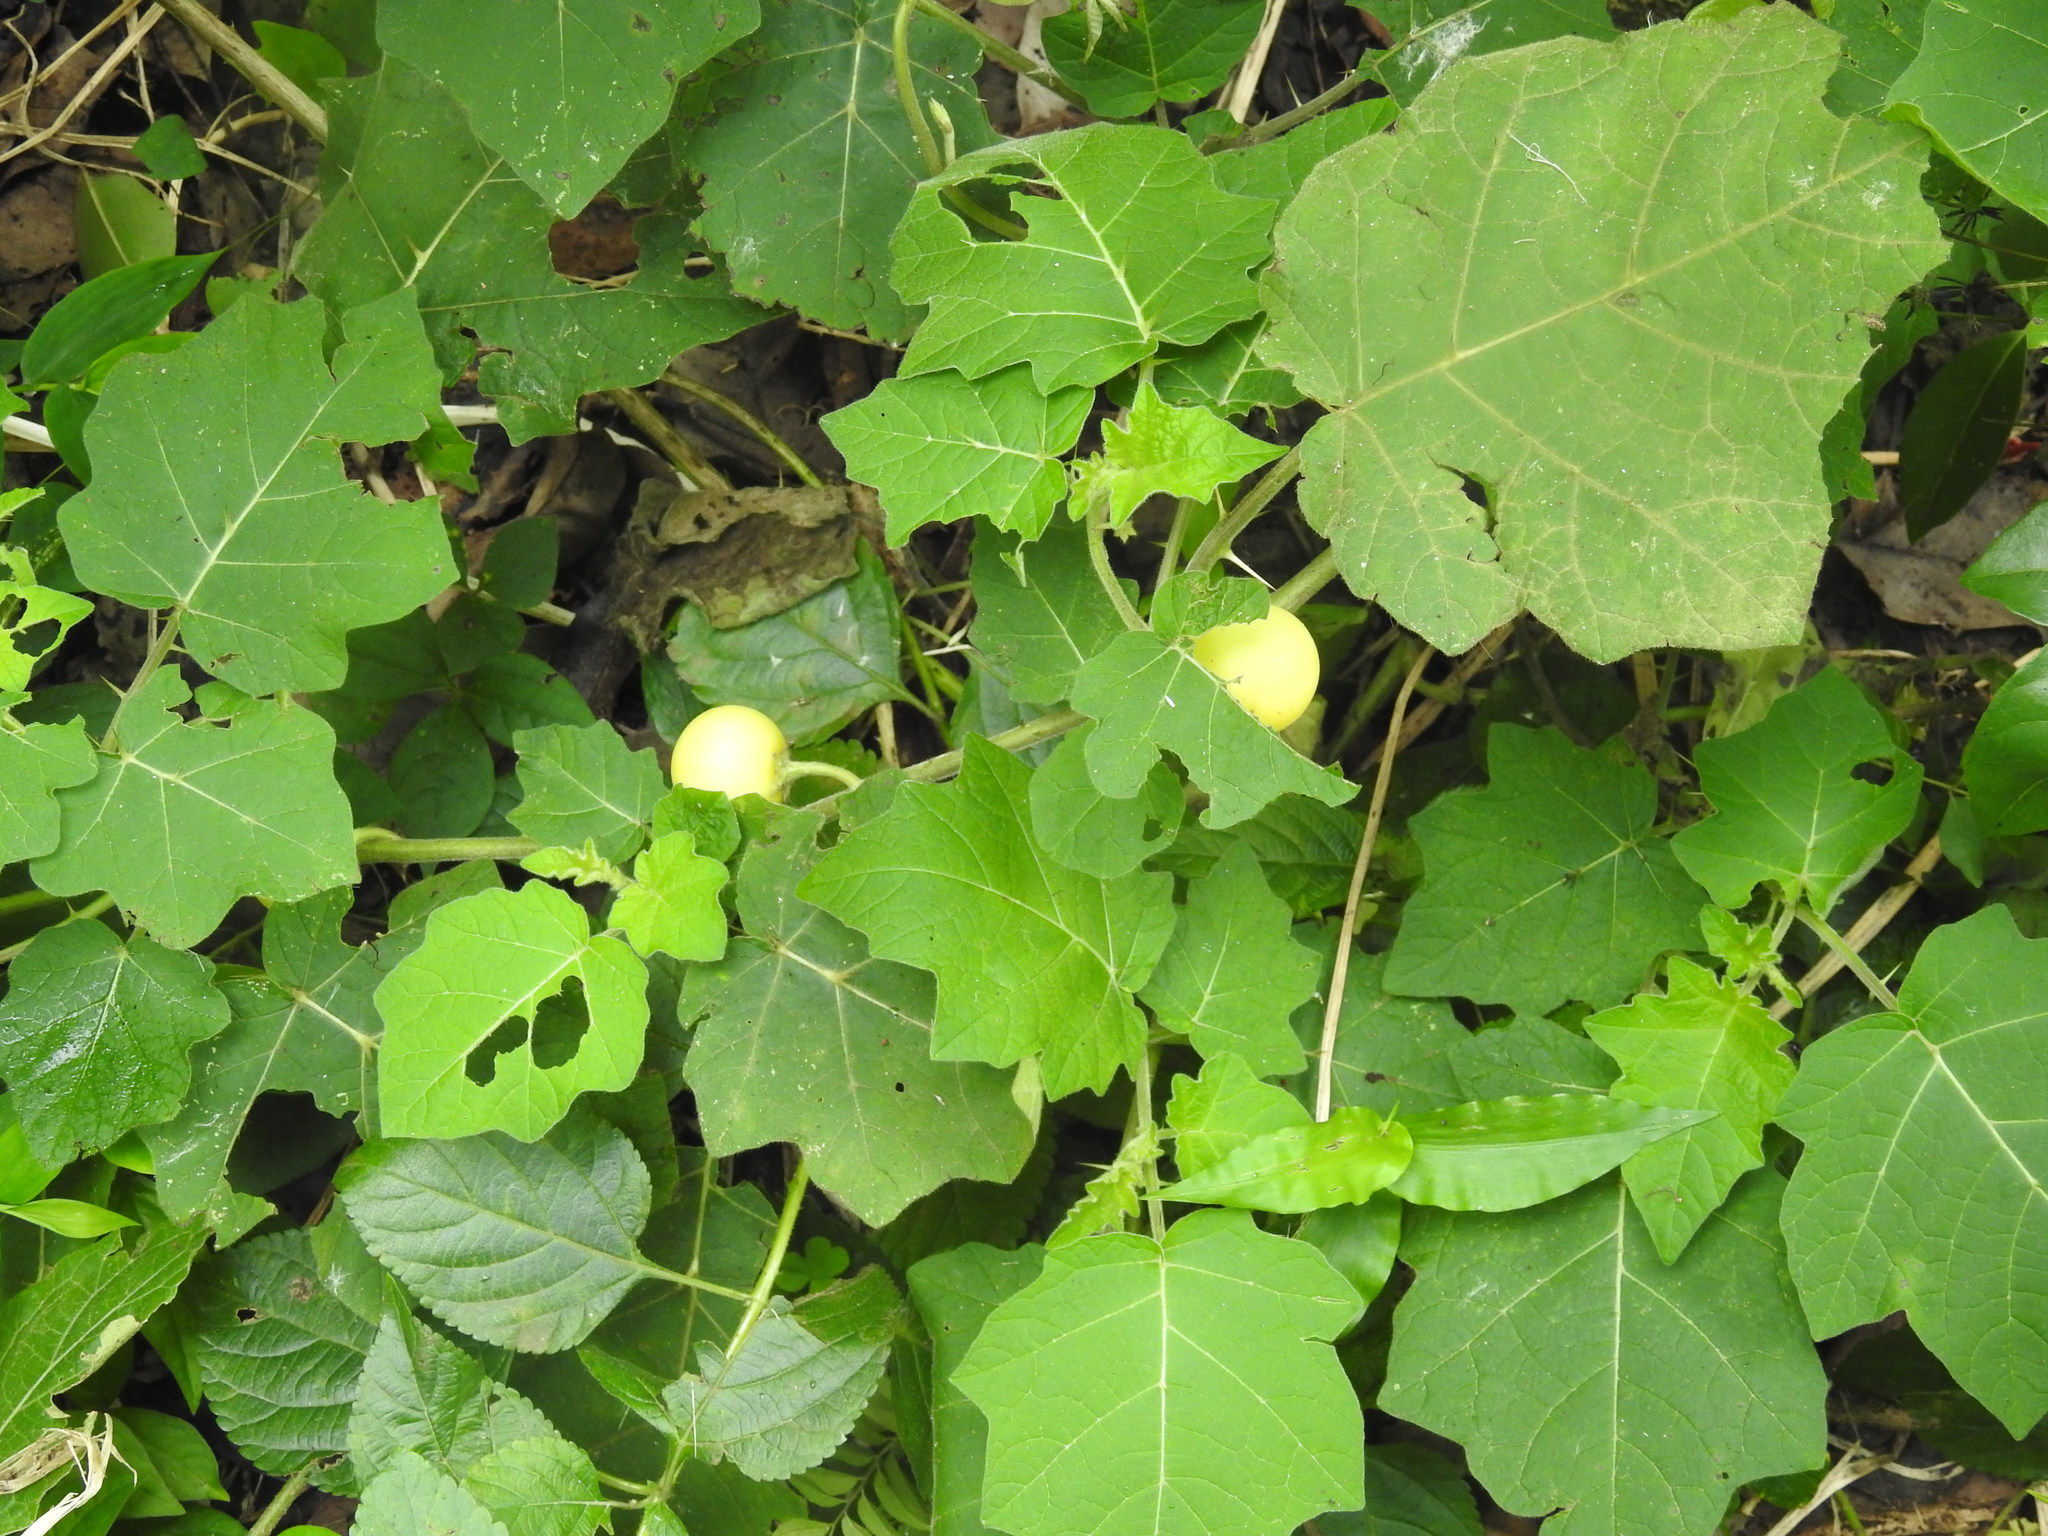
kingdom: Plantae
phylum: Tracheophyta
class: Magnoliopsida
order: Solanales
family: Solanaceae
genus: Solanum
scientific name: Solanum viarum
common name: Tropical soda apple
